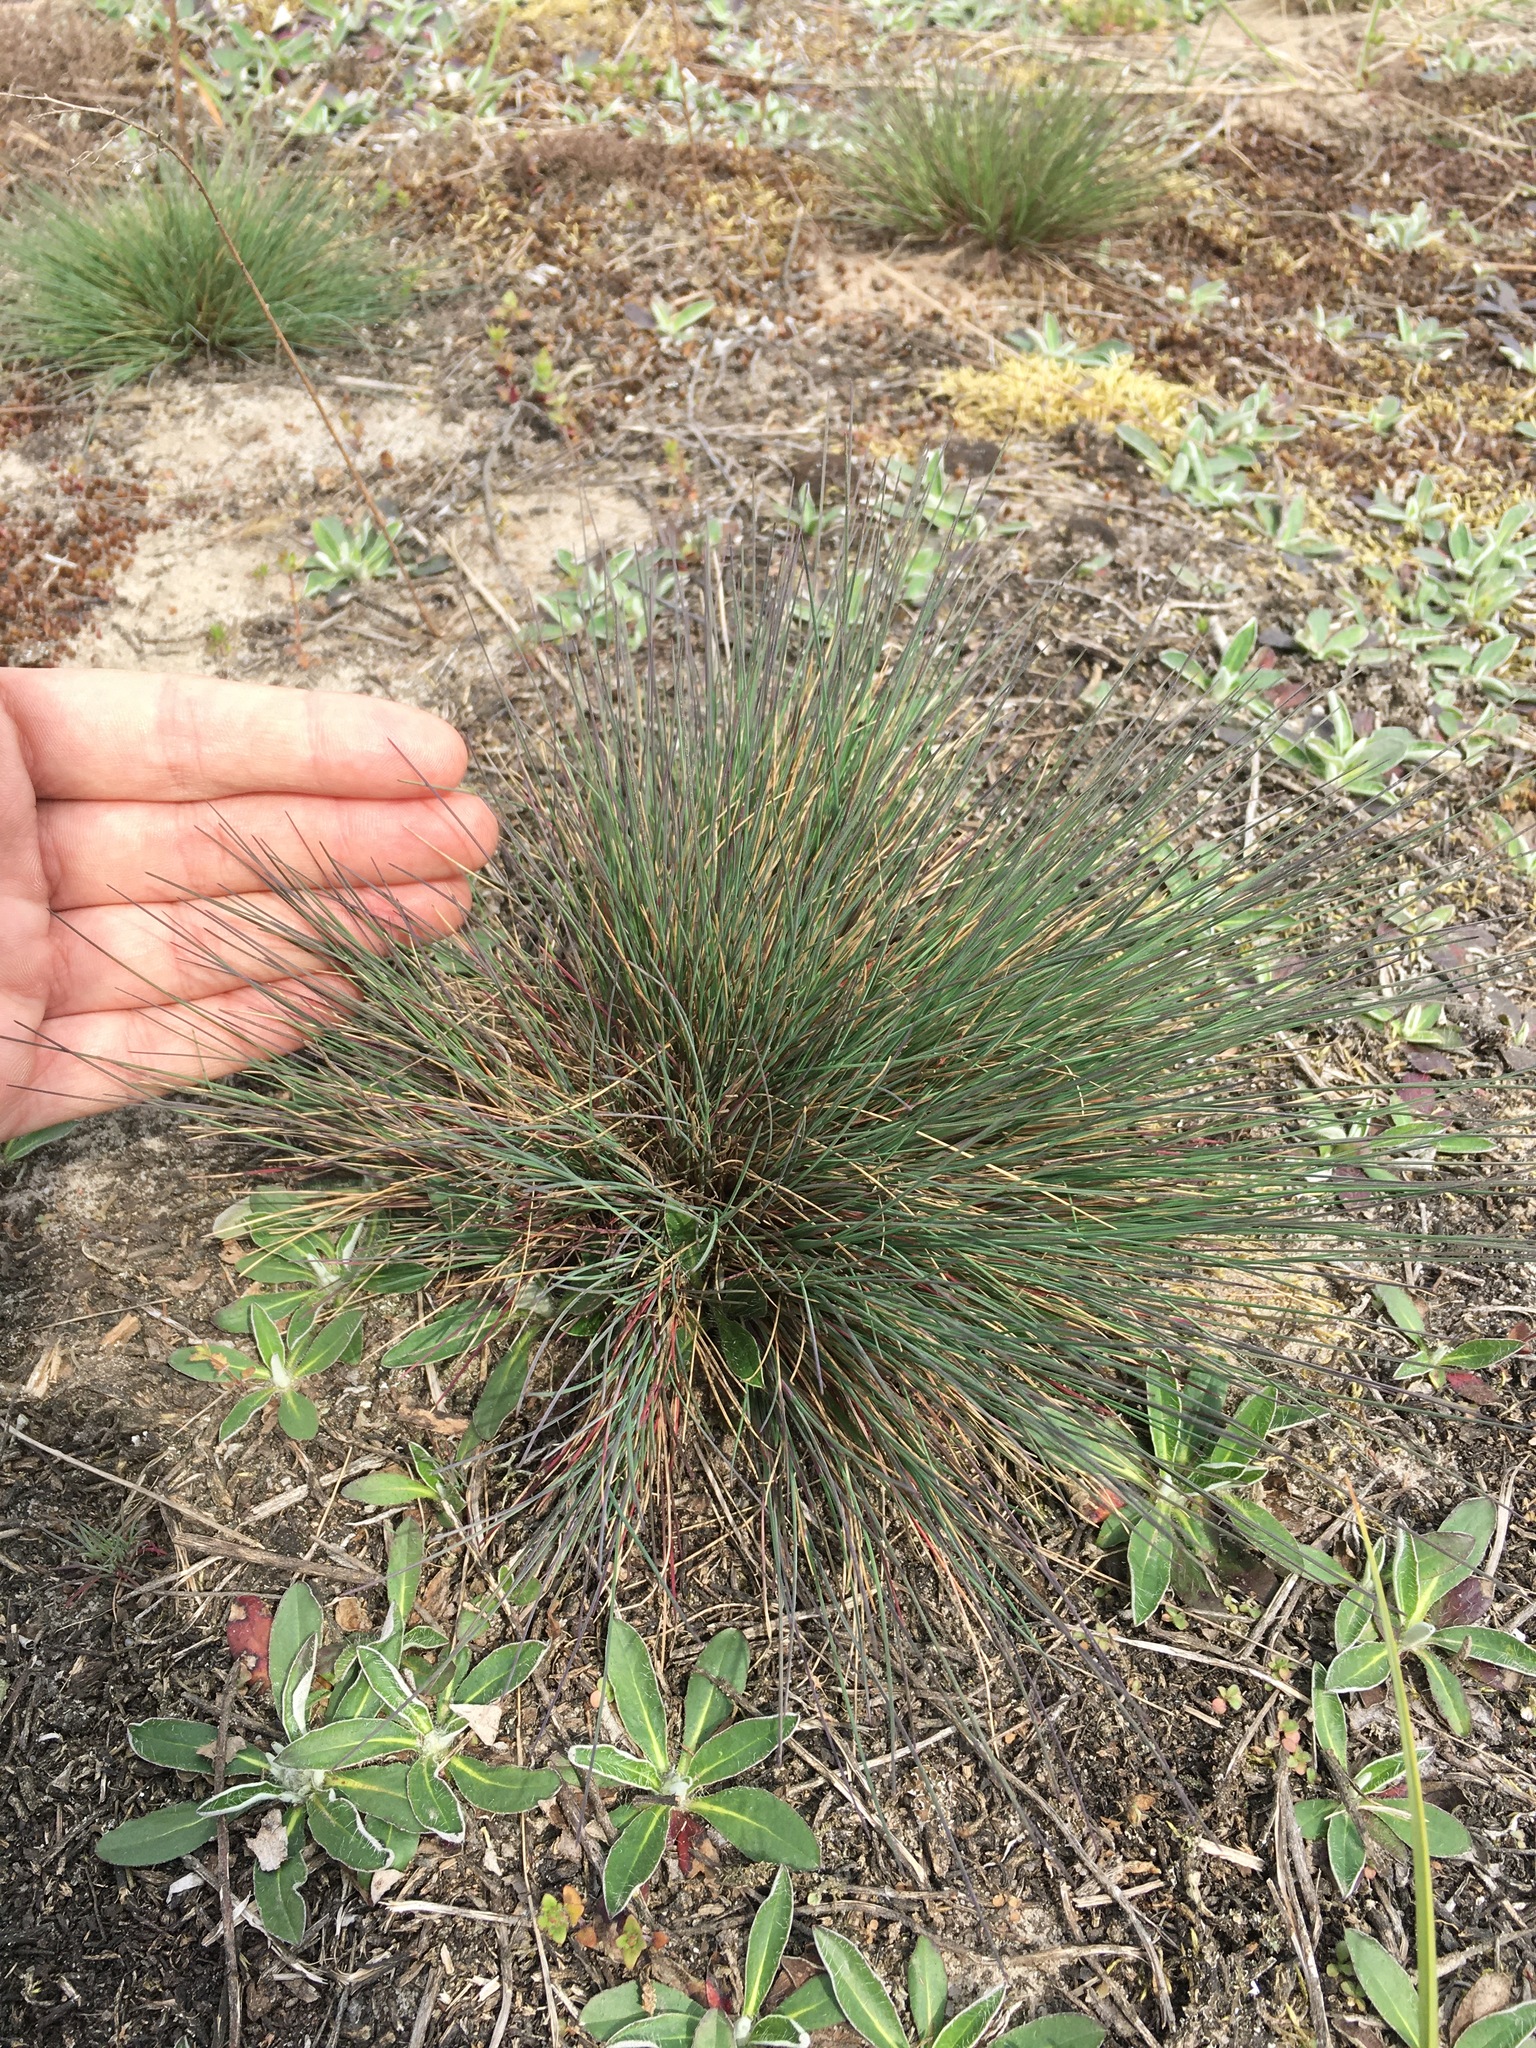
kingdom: Plantae
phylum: Tracheophyta
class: Liliopsida
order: Poales
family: Poaceae
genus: Corynephorus
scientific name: Corynephorus canescens
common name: Grey hair-grass
